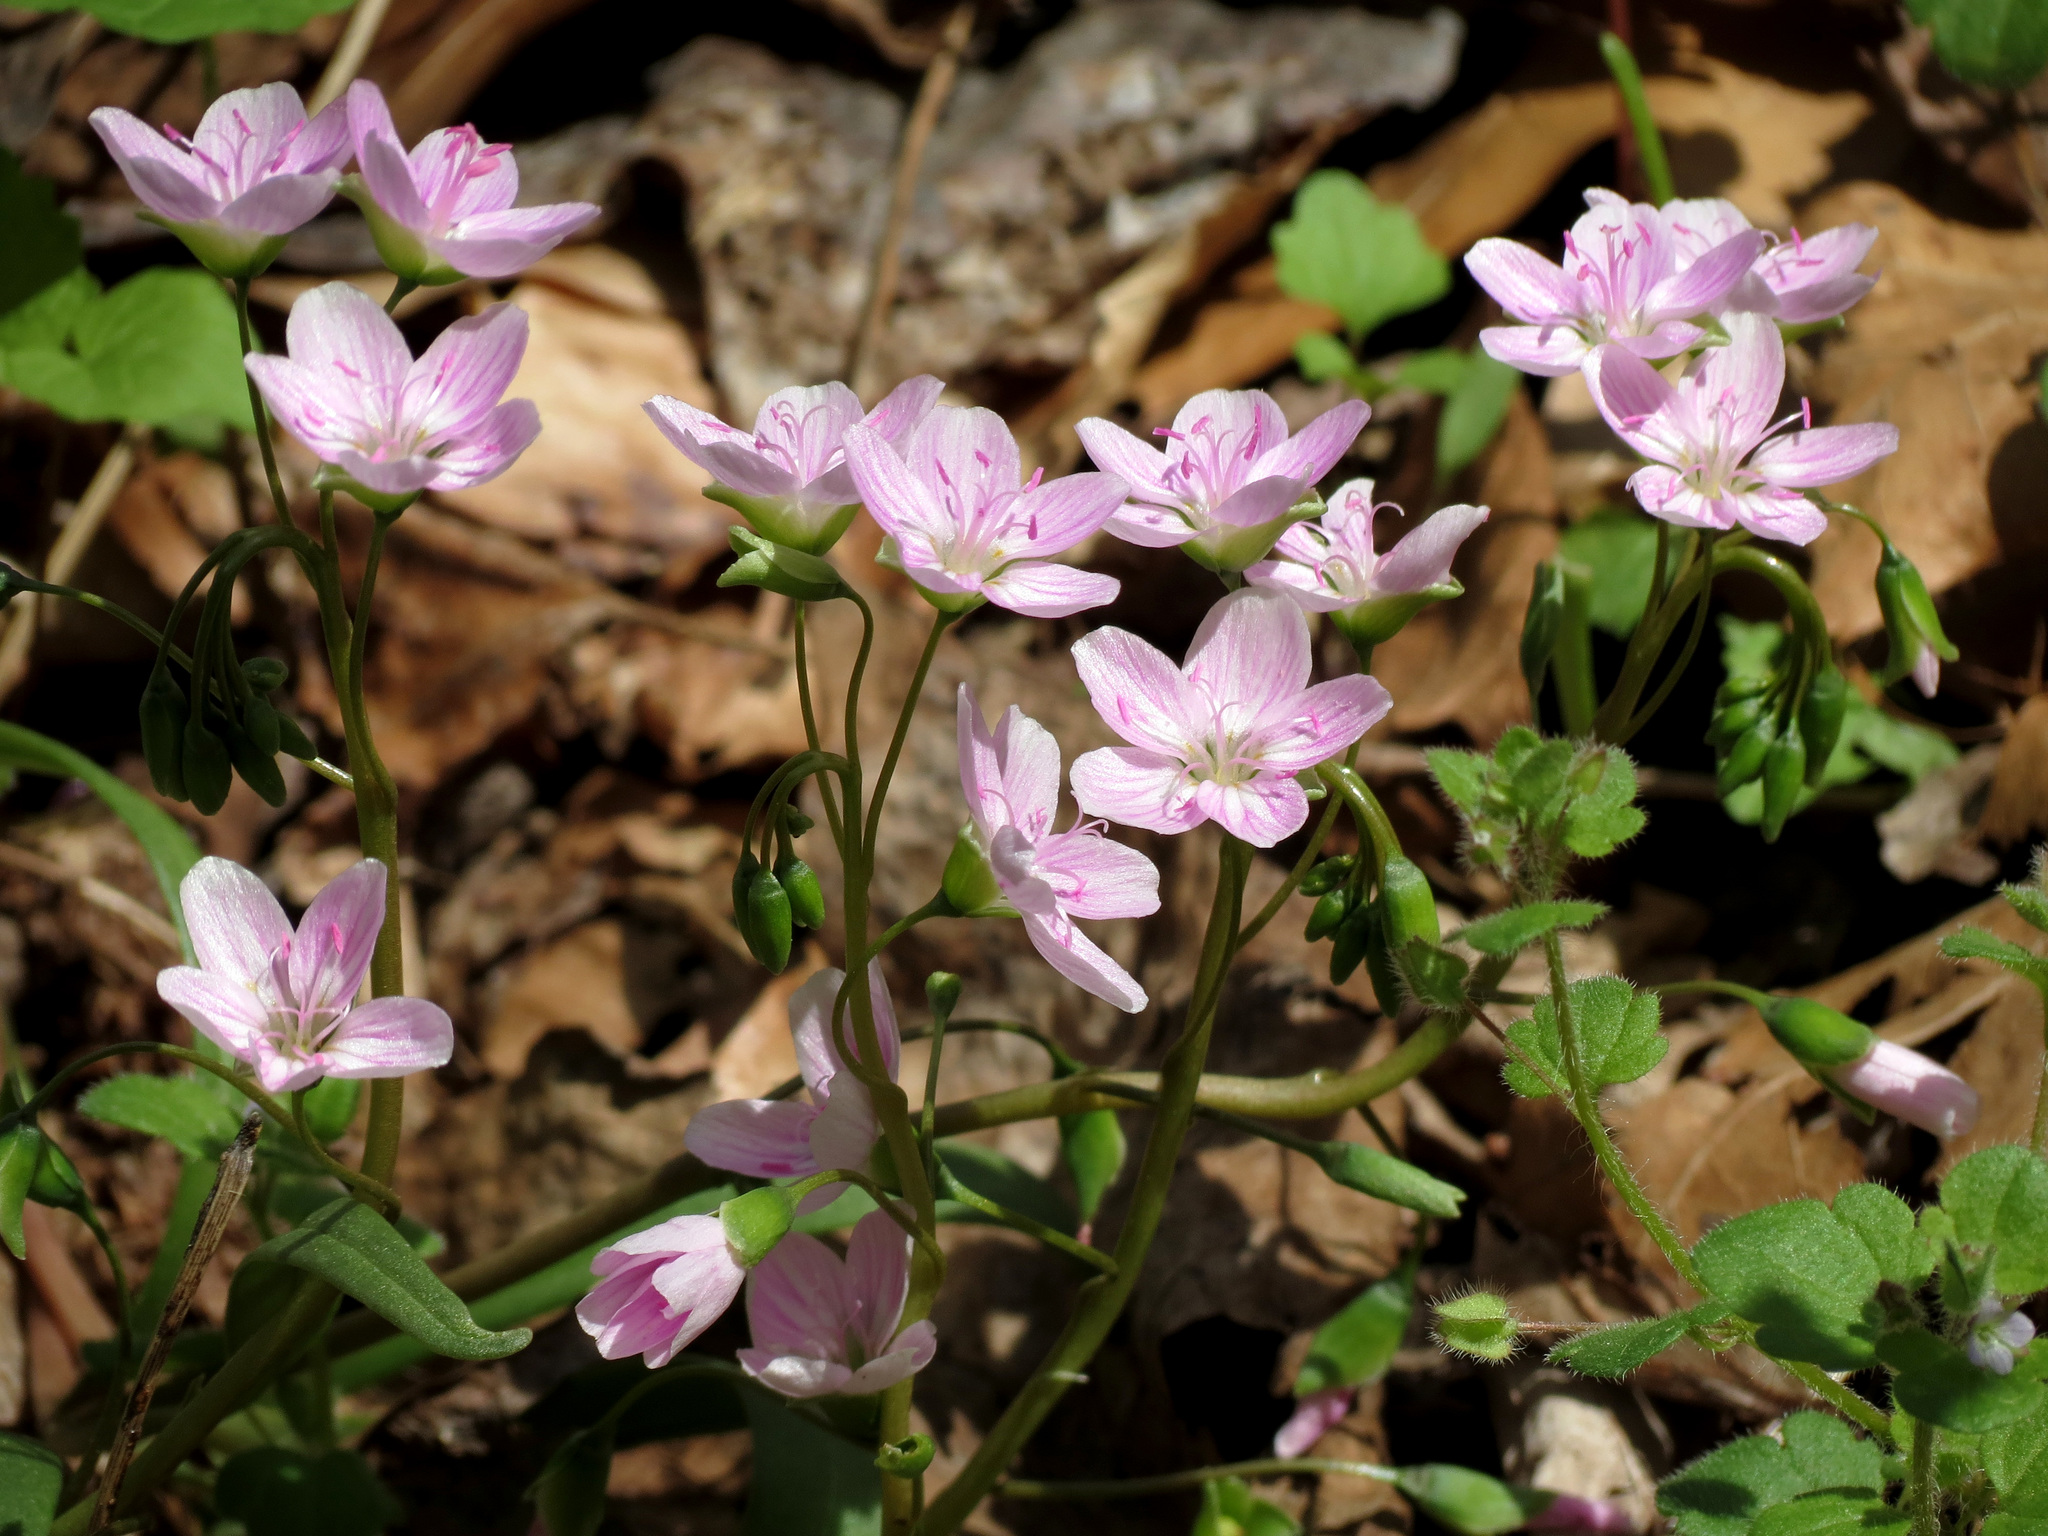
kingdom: Plantae
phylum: Tracheophyta
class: Magnoliopsida
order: Caryophyllales
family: Montiaceae
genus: Claytonia
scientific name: Claytonia virginica
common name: Virginia springbeauty
